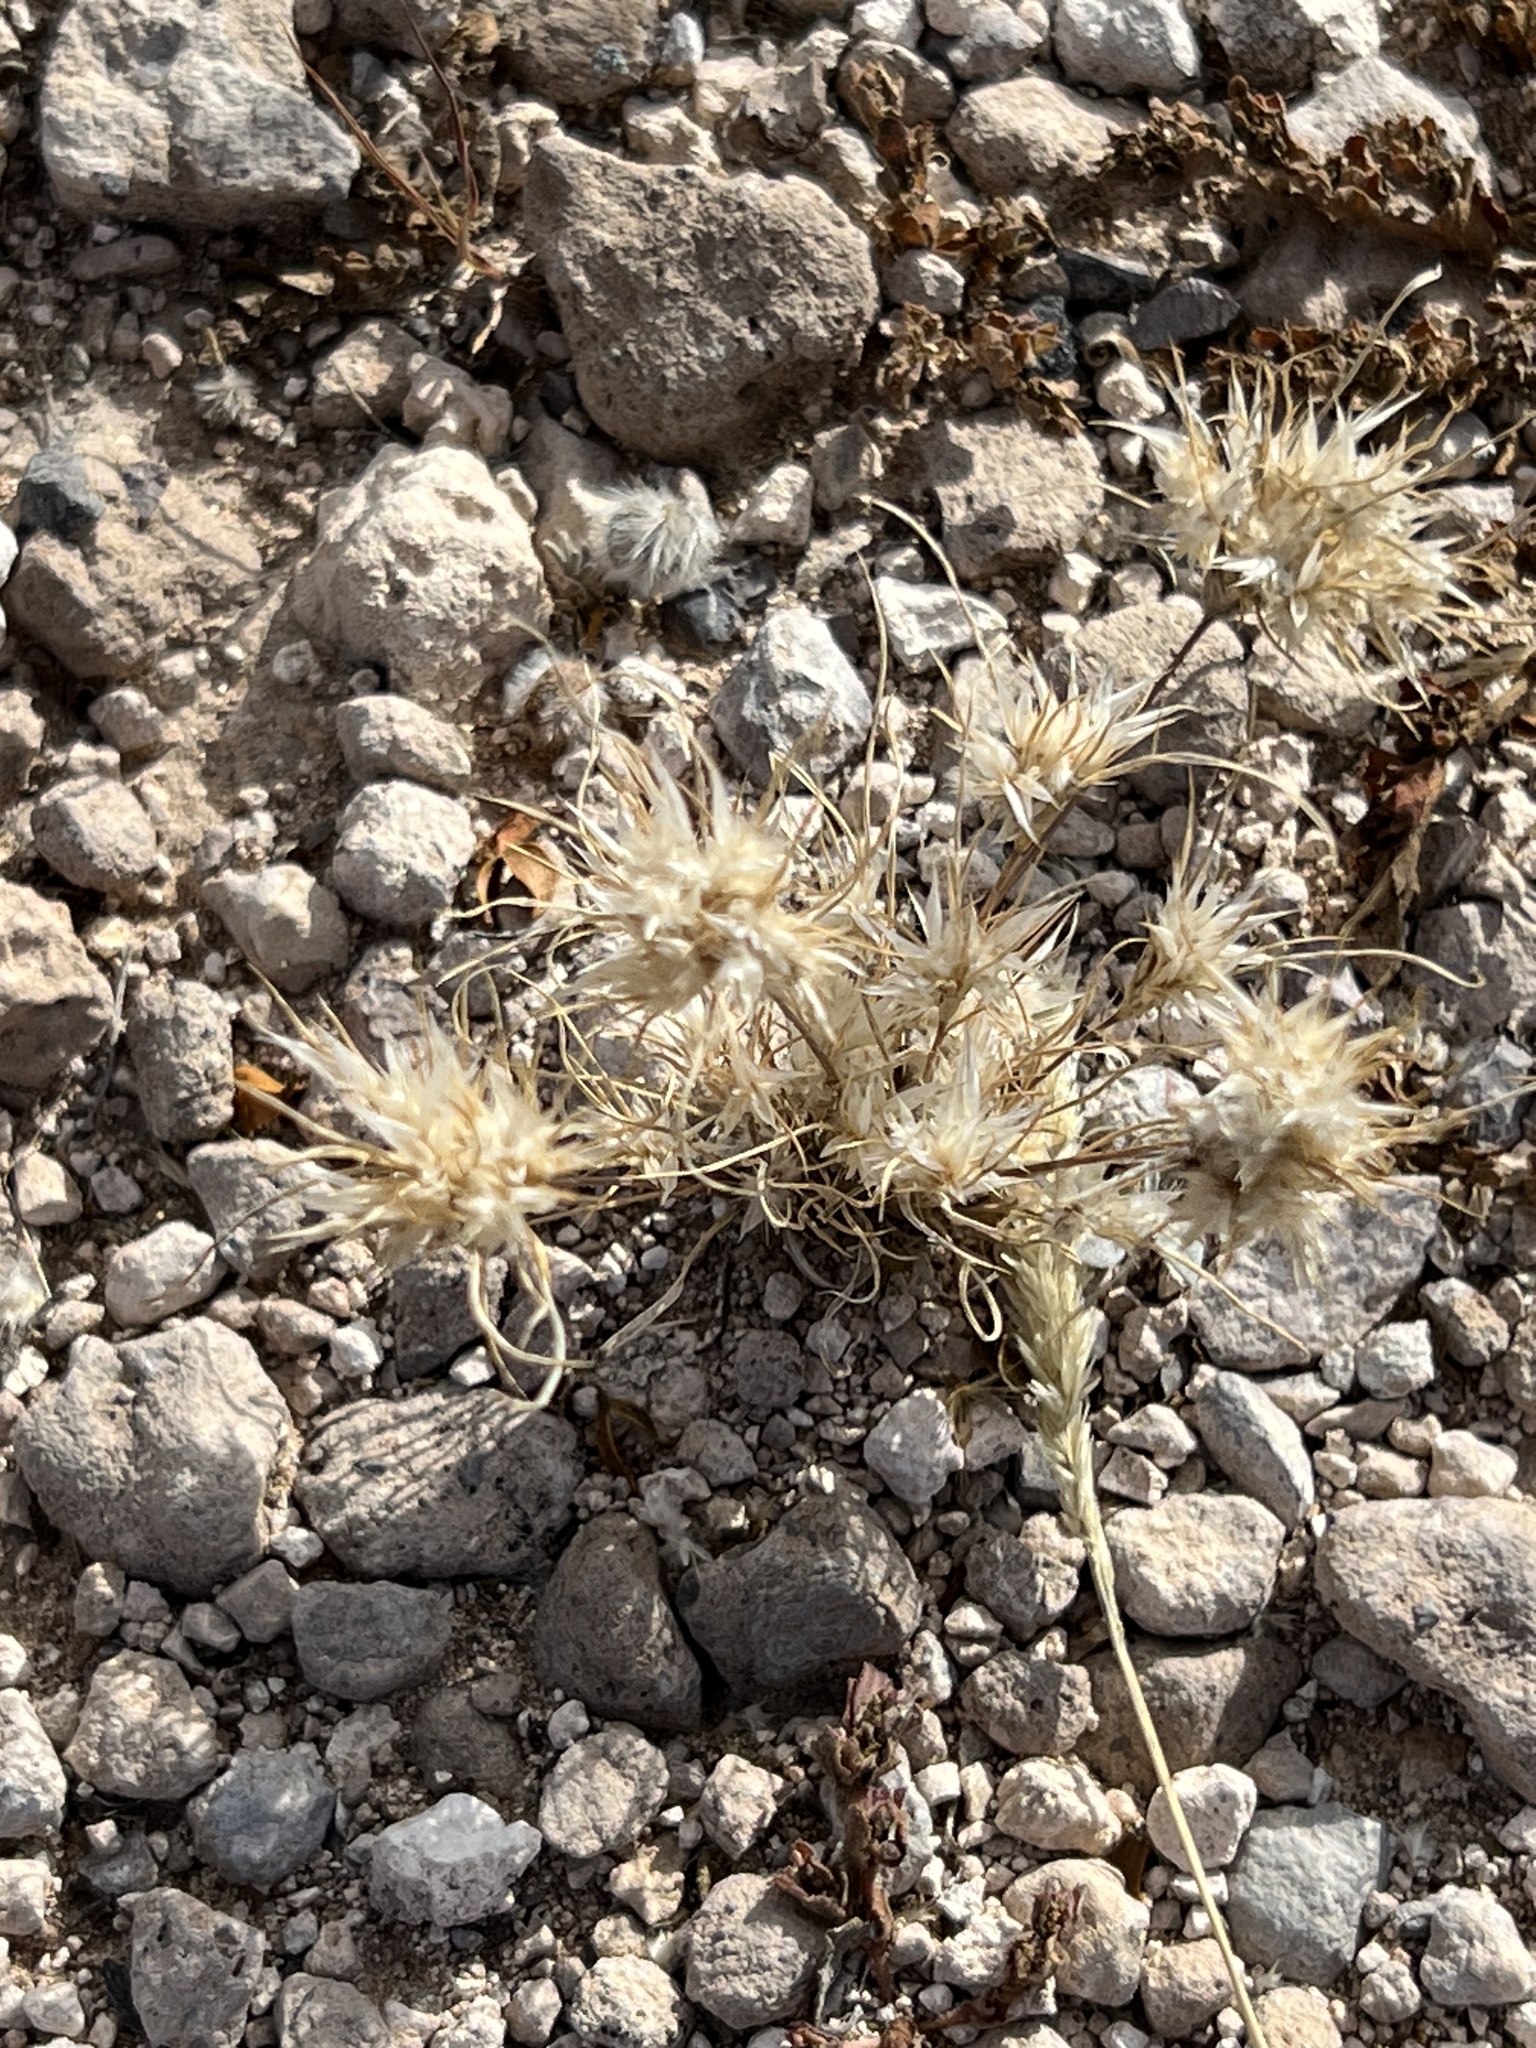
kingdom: Plantae
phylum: Tracheophyta
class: Liliopsida
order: Poales
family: Poaceae
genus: Dasyochloa
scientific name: Dasyochloa pulchella
